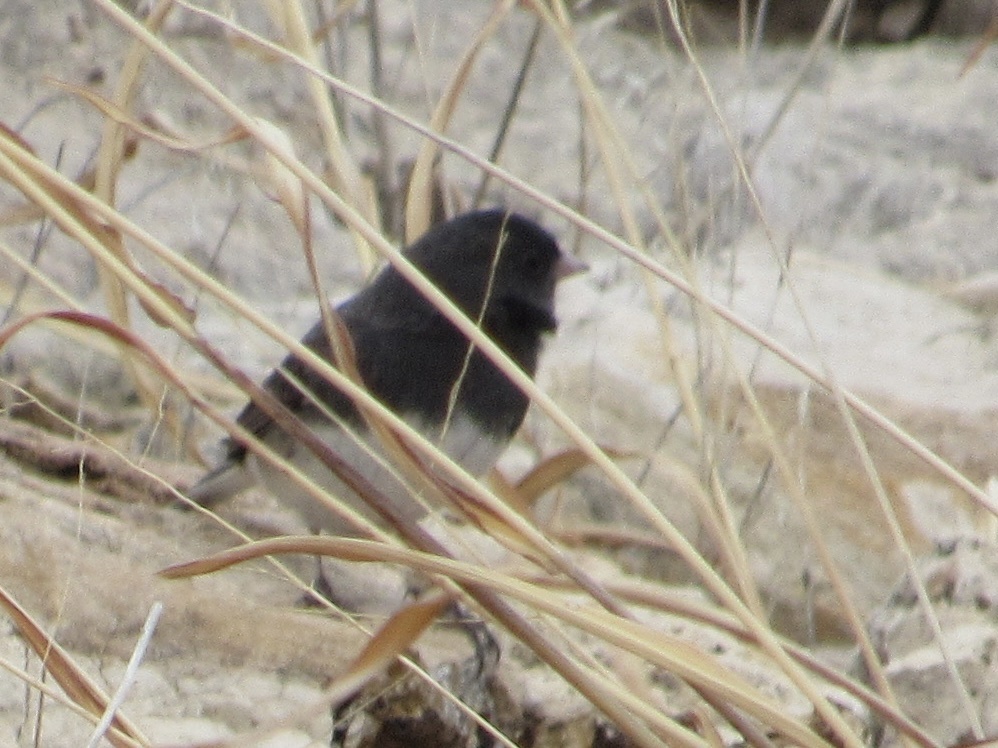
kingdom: Animalia
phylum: Chordata
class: Aves
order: Passeriformes
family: Passerellidae
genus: Junco
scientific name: Junco hyemalis
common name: Dark-eyed junco
